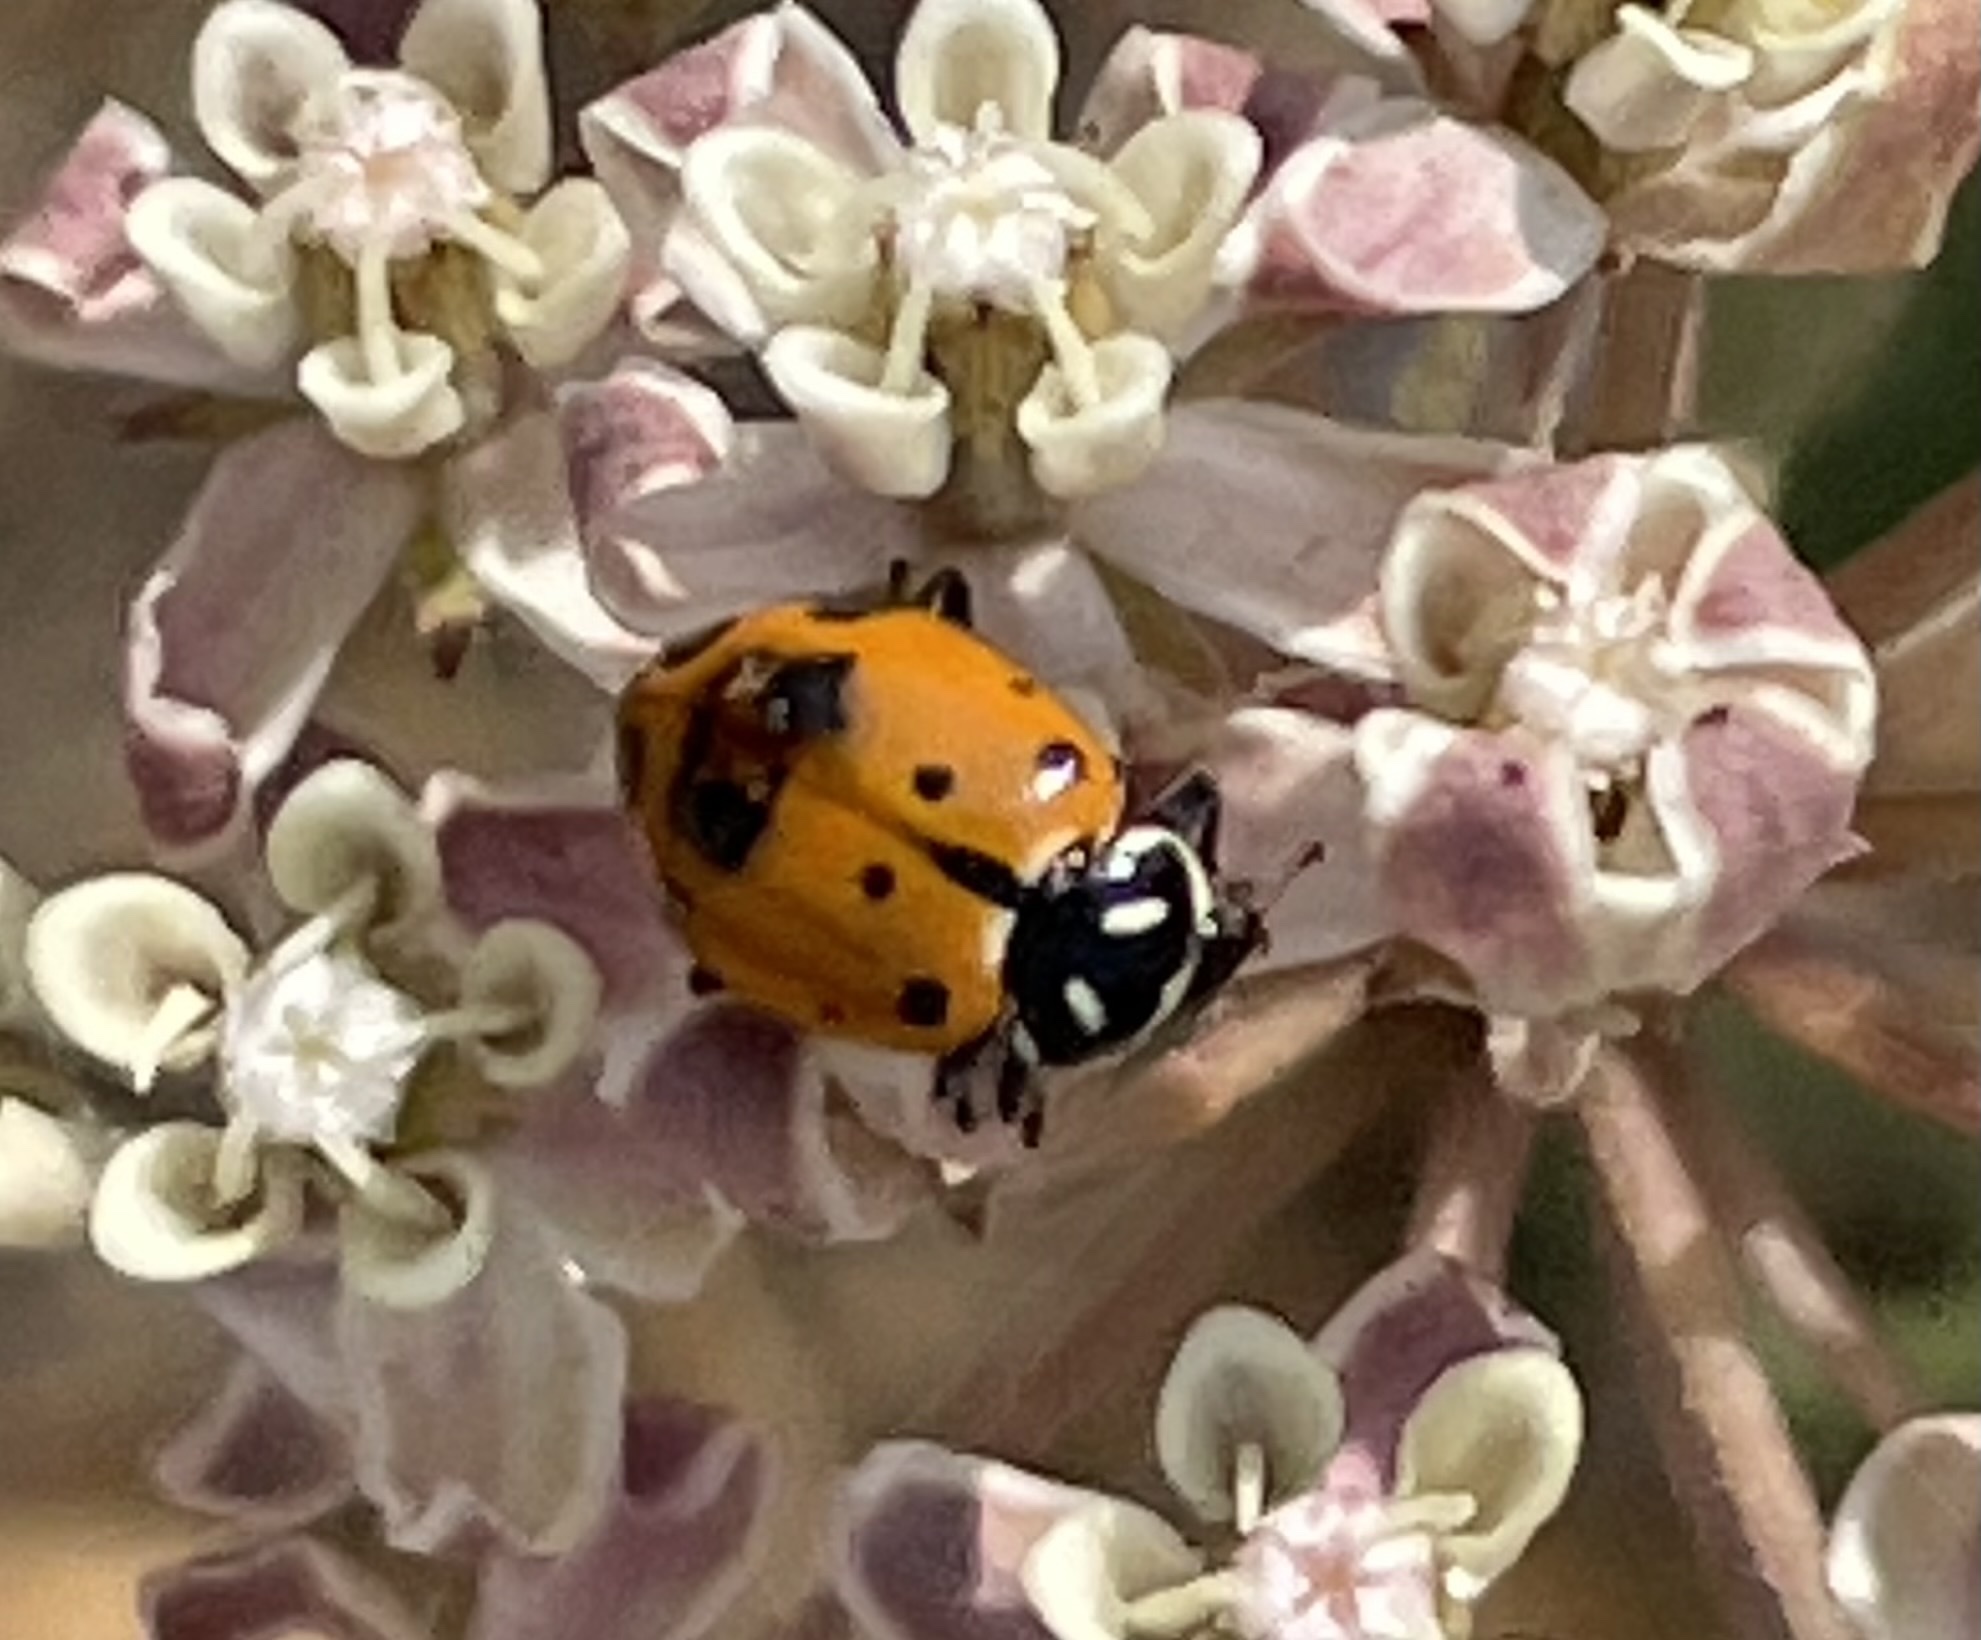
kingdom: Animalia
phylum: Arthropoda
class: Insecta
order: Coleoptera
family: Coccinellidae
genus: Hippodamia
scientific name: Hippodamia convergens
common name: Convergent lady beetle
